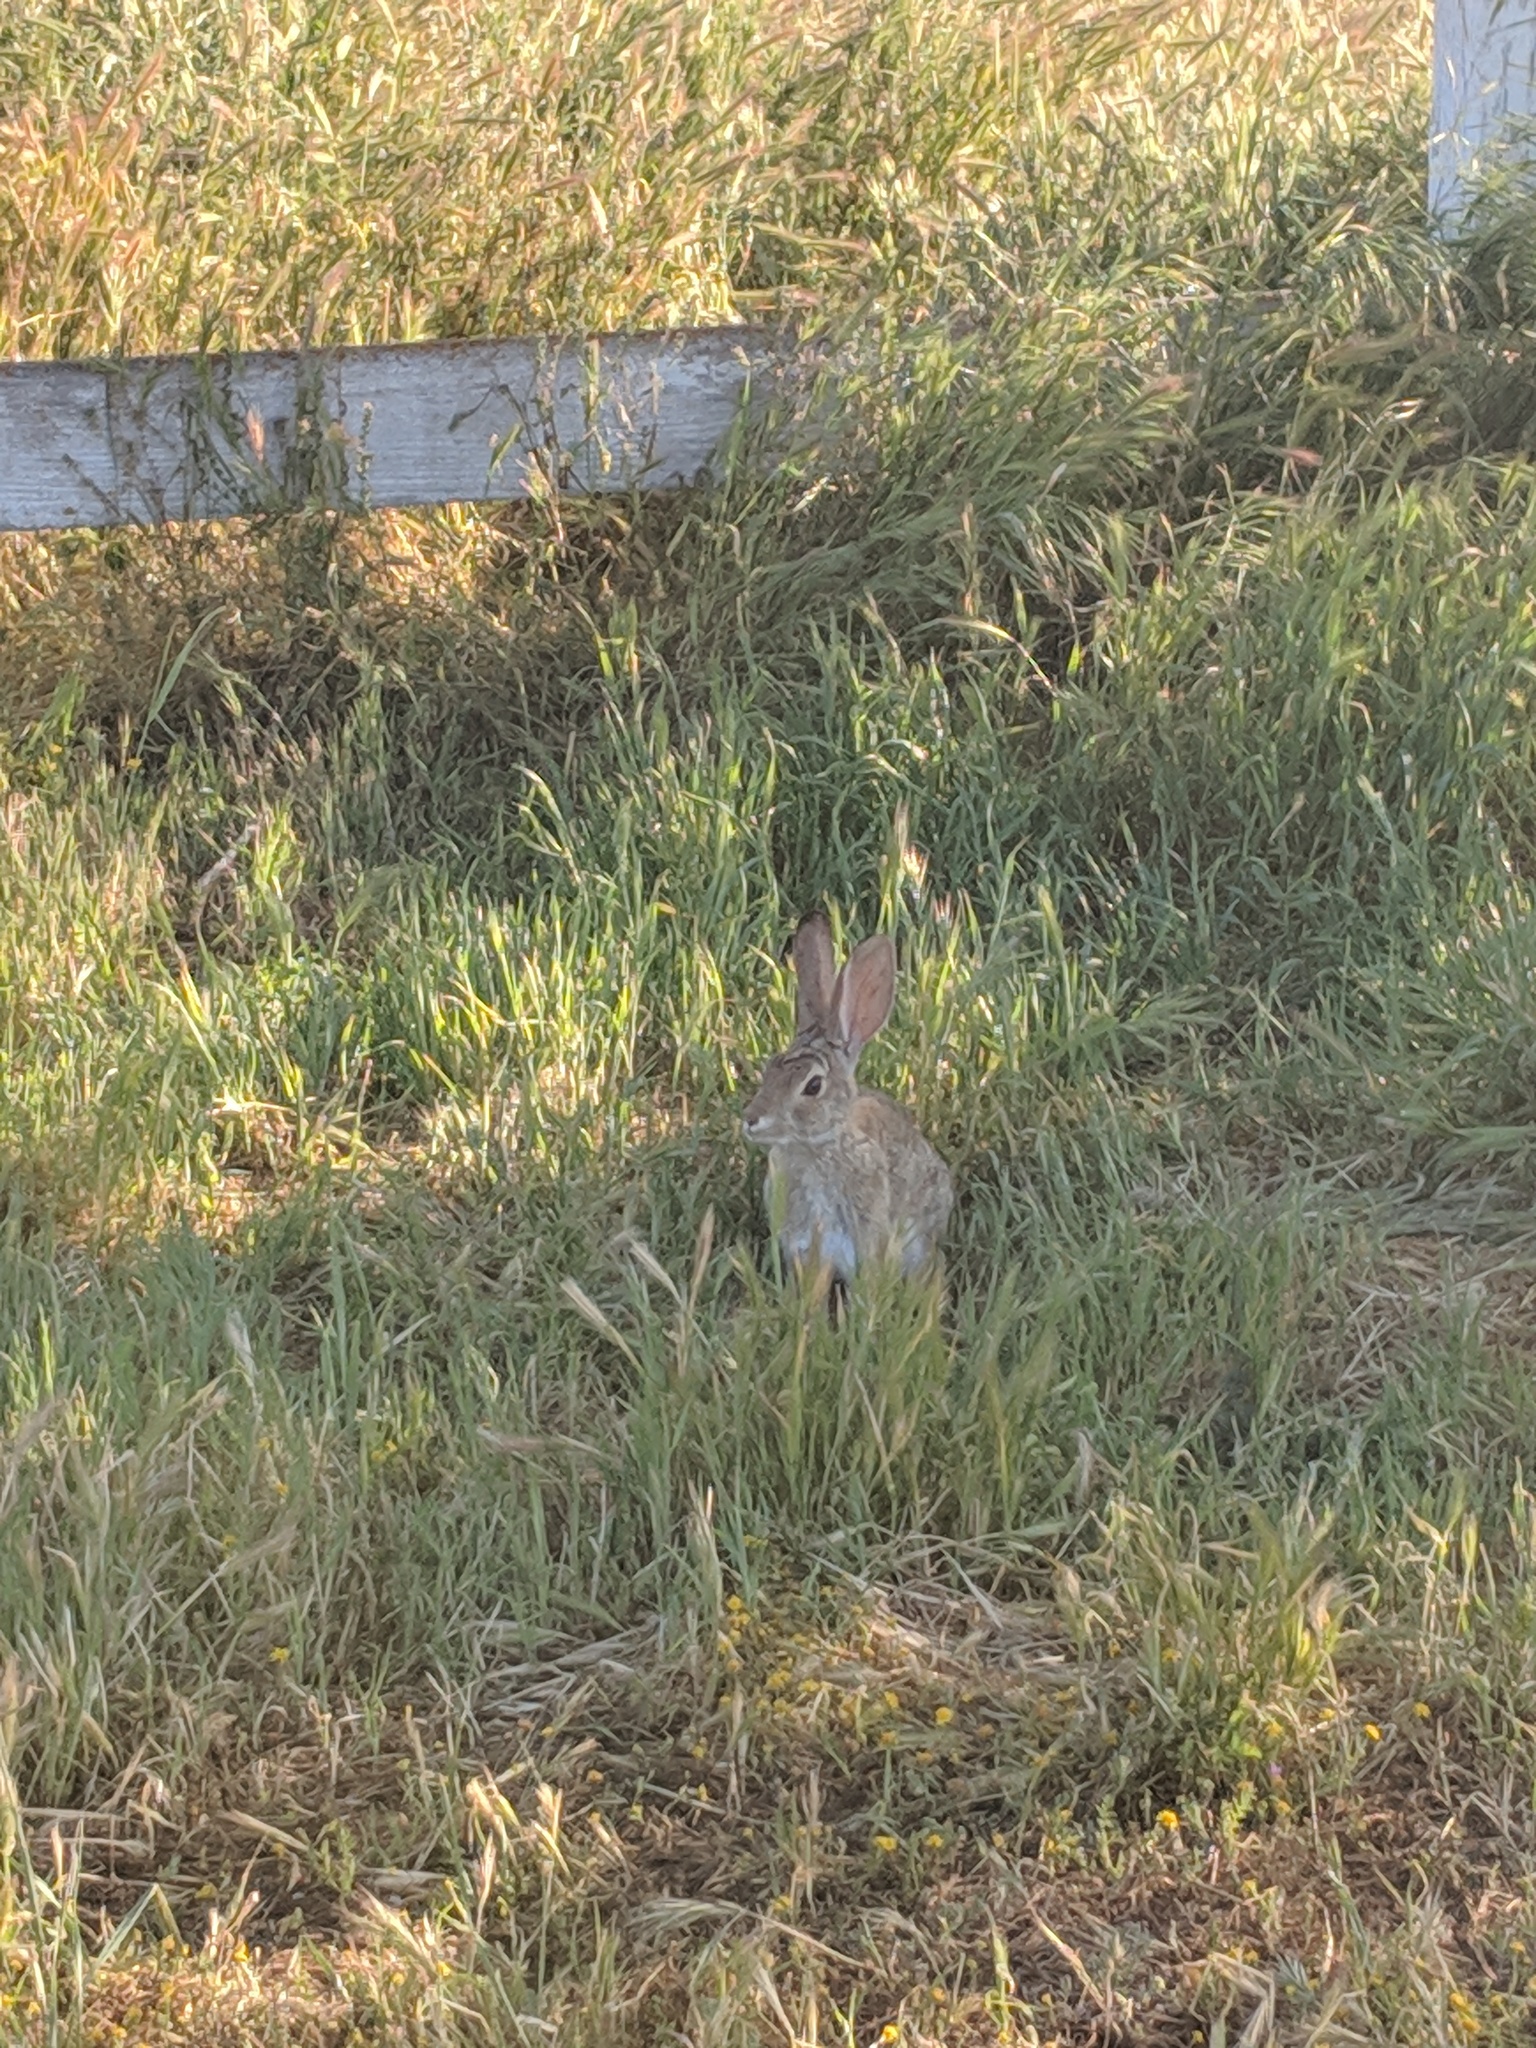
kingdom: Animalia
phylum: Chordata
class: Mammalia
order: Lagomorpha
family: Leporidae
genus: Sylvilagus
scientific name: Sylvilagus audubonii
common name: Desert cottontail
